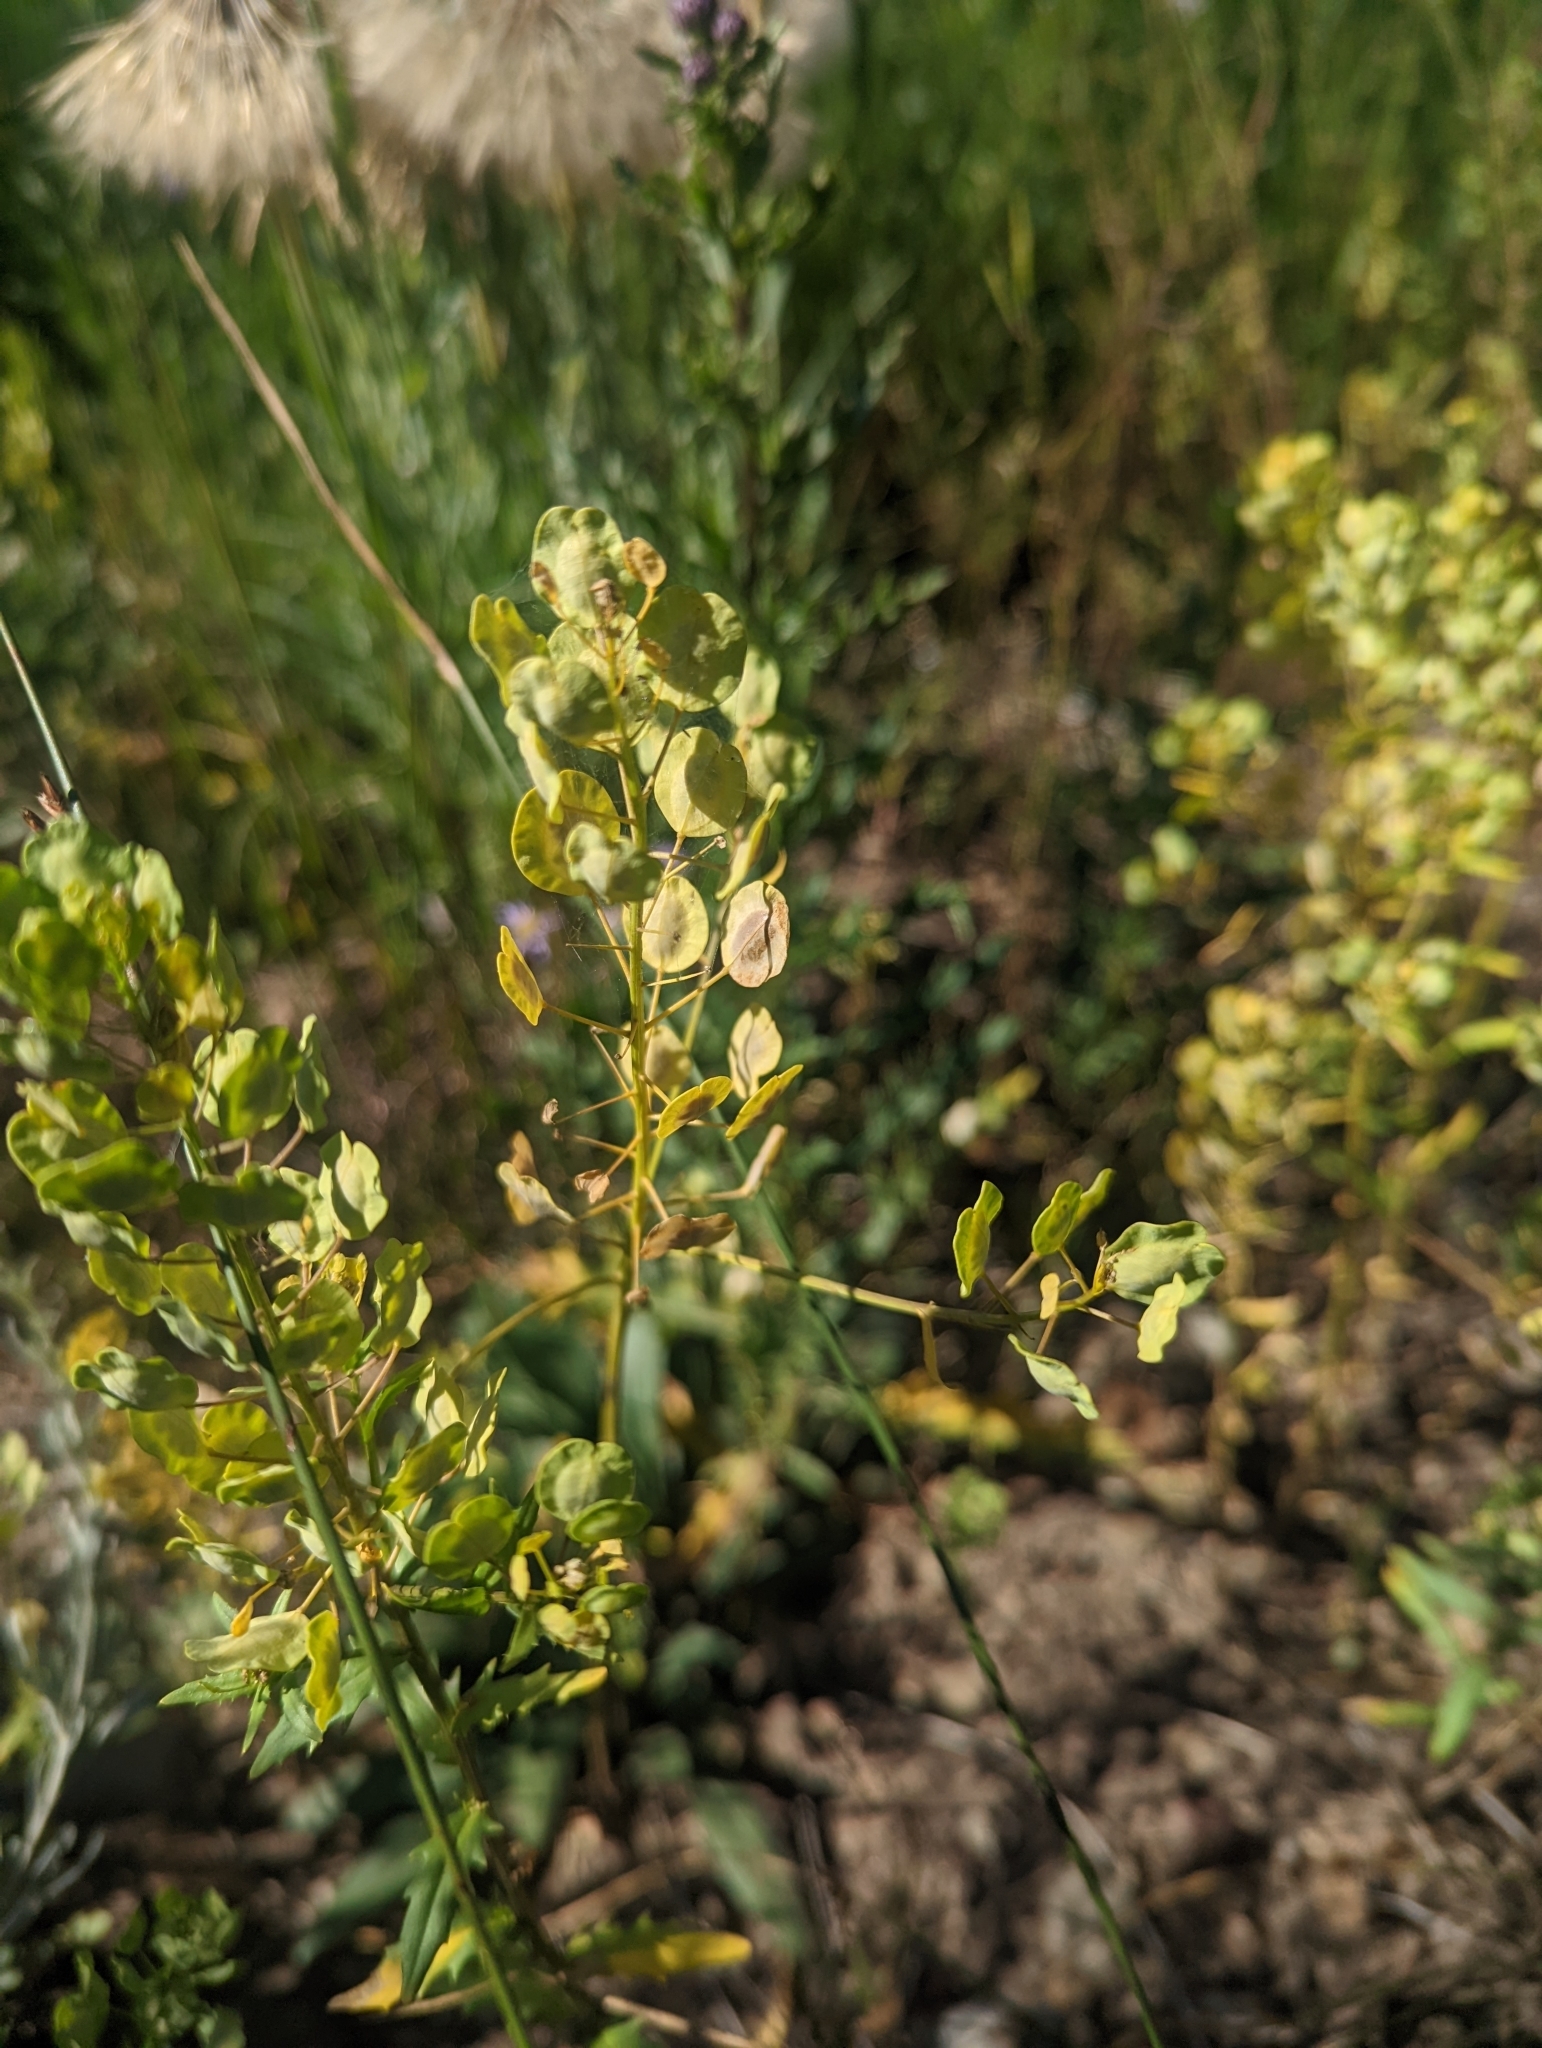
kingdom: Plantae
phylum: Tracheophyta
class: Magnoliopsida
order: Brassicales
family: Brassicaceae
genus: Thlaspi
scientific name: Thlaspi arvense
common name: Field pennycress
